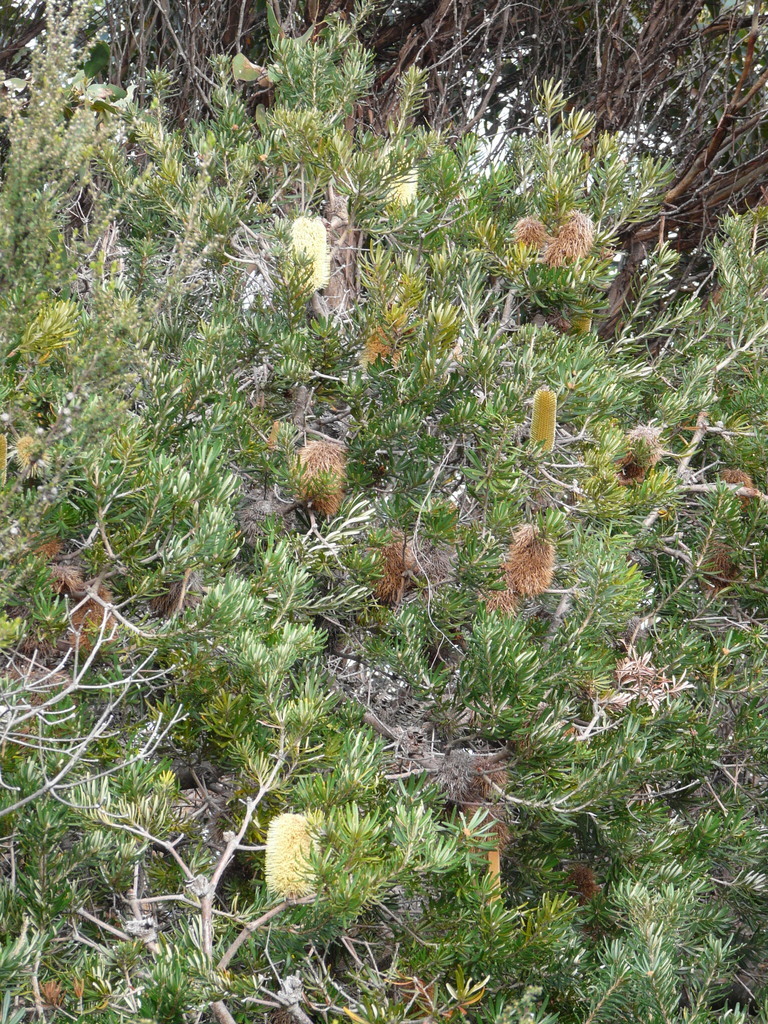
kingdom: Plantae
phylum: Tracheophyta
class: Magnoliopsida
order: Proteales
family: Proteaceae
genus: Banksia
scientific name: Banksia marginata
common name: Silver banksia
